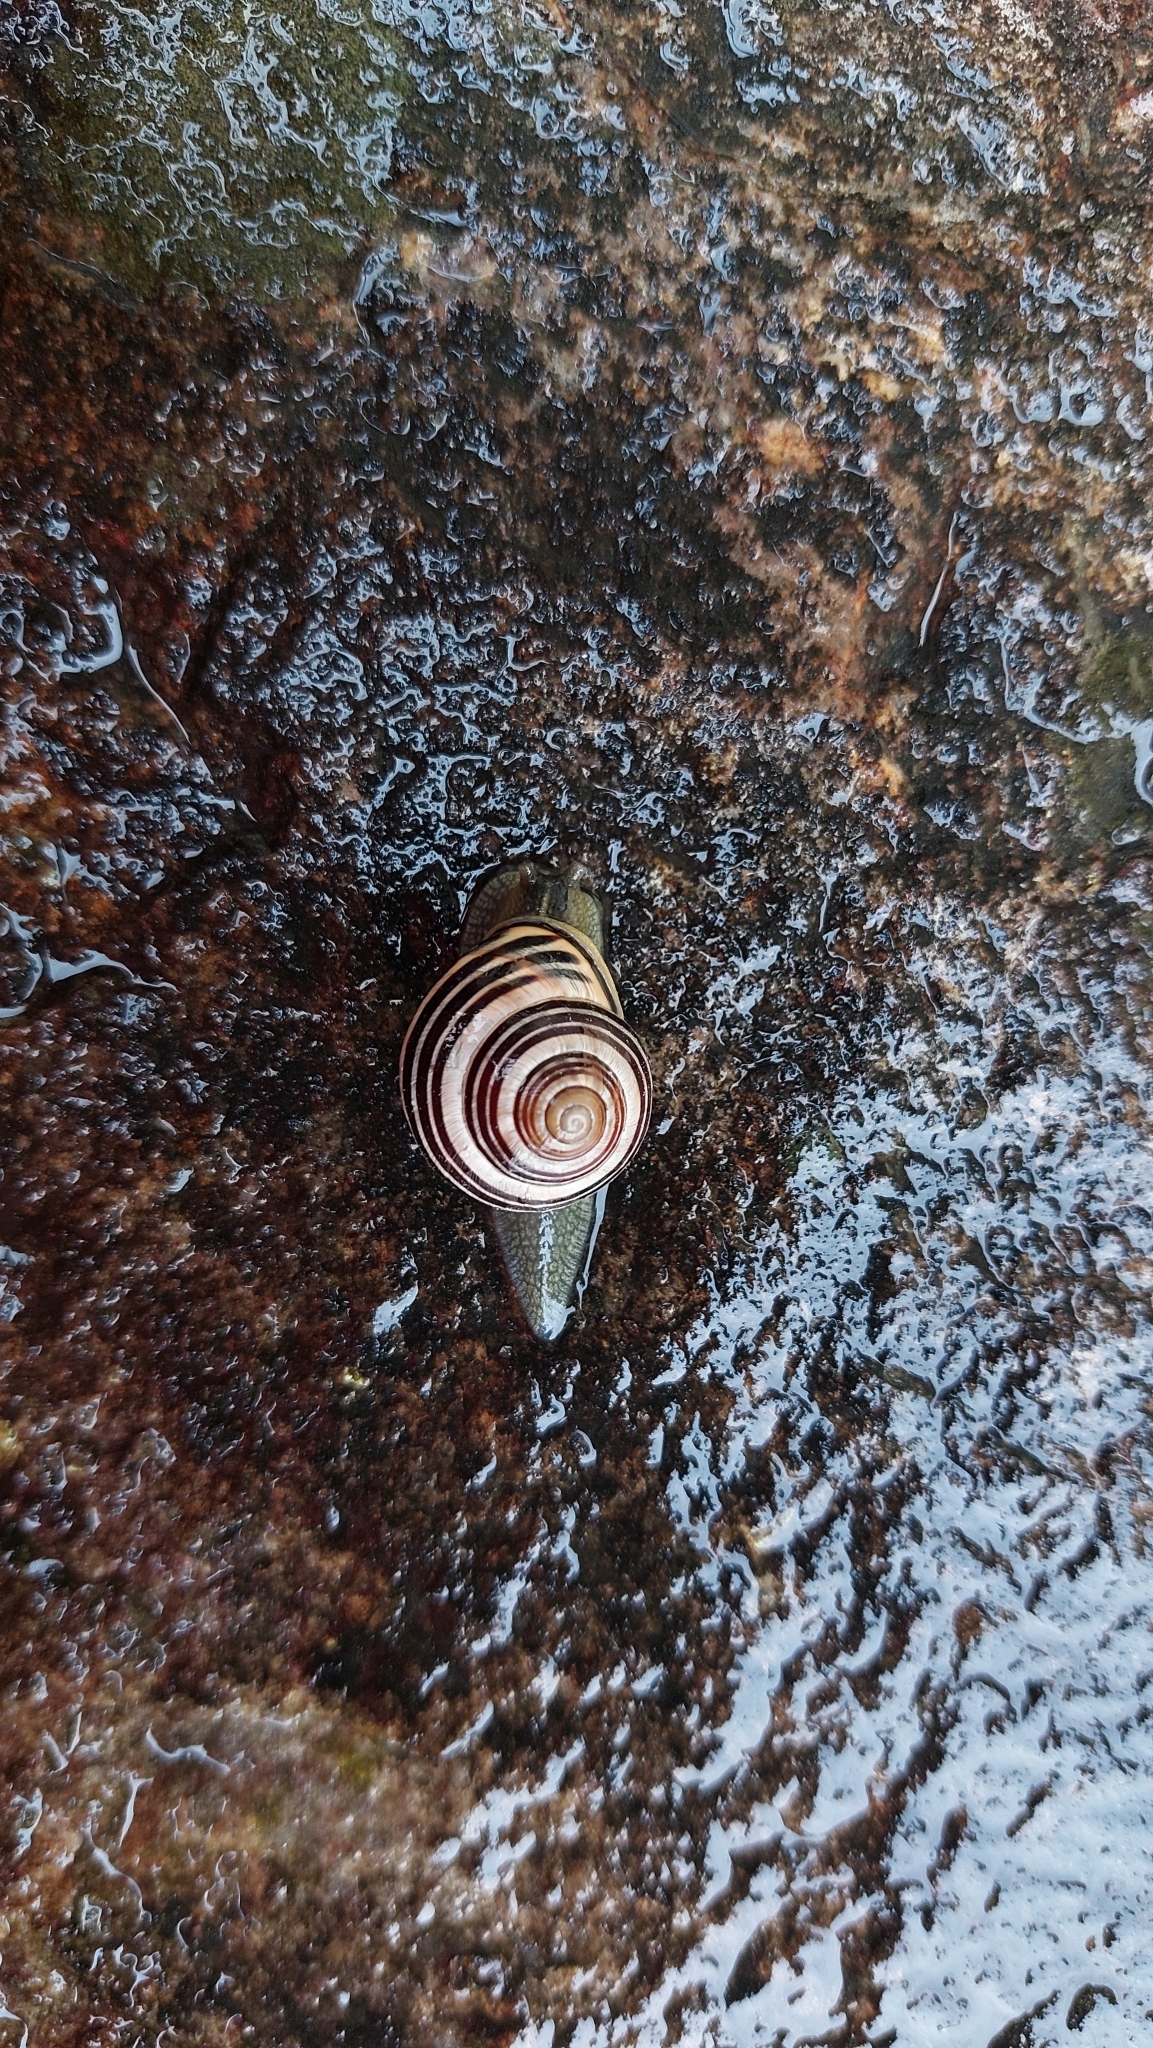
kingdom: Animalia
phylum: Mollusca
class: Gastropoda
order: Stylommatophora
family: Helicidae
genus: Cepaea
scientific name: Cepaea nemoralis
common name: Grovesnail
